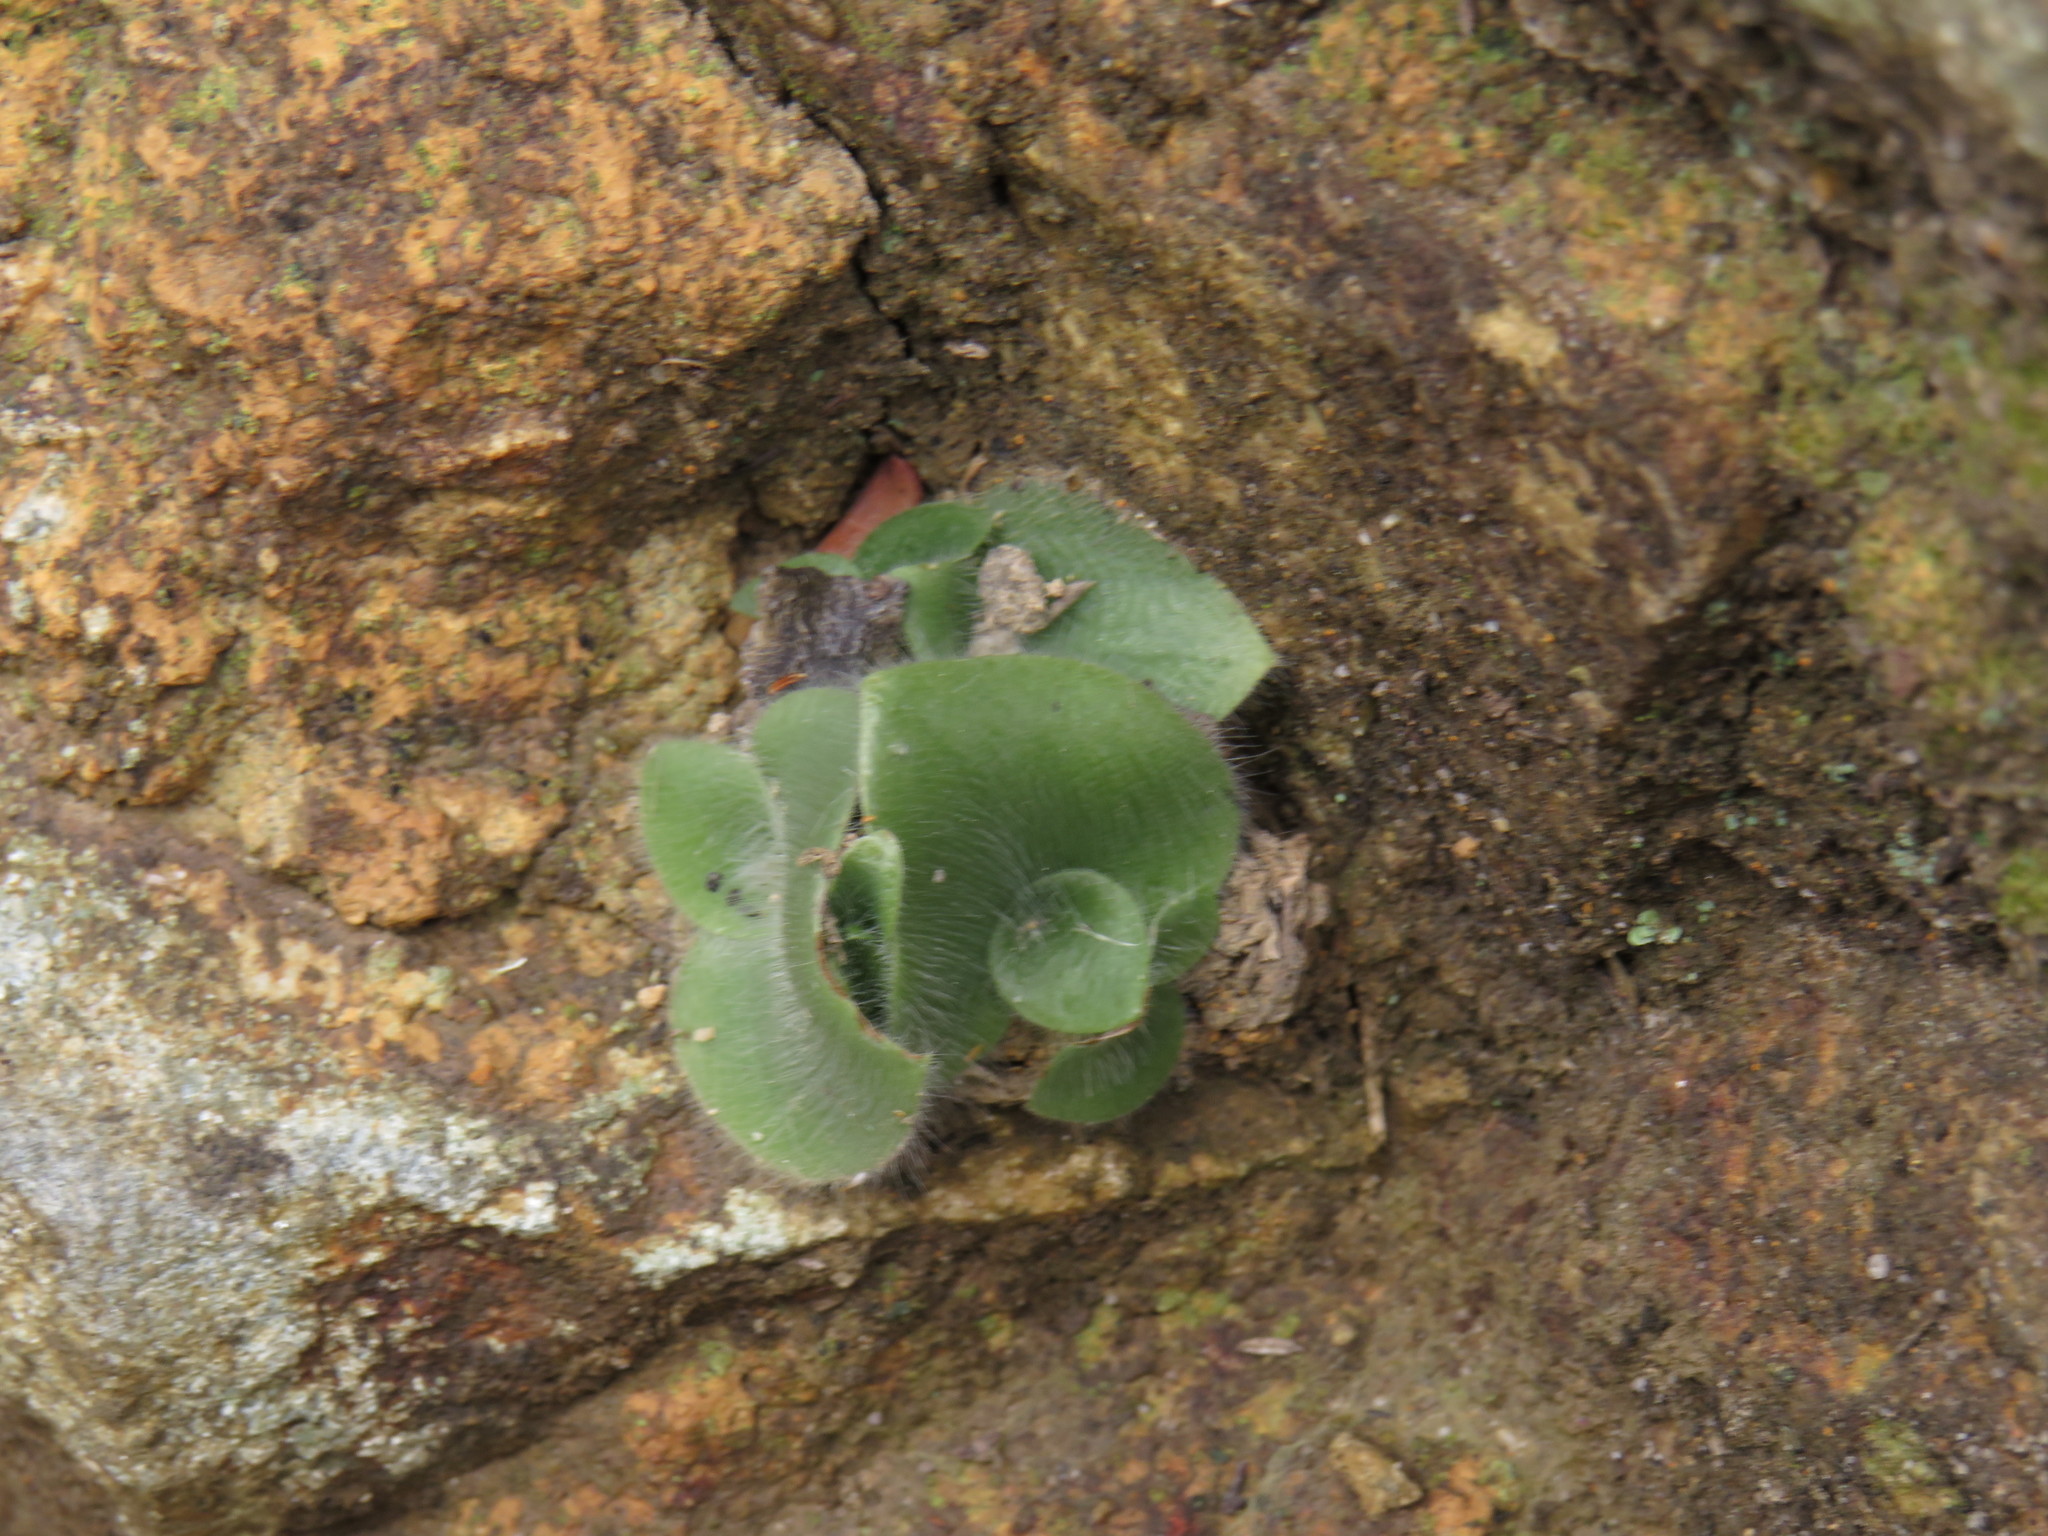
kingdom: Plantae
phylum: Tracheophyta
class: Liliopsida
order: Asparagales
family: Orchidaceae
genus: Holothrix
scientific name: Holothrix villosa
